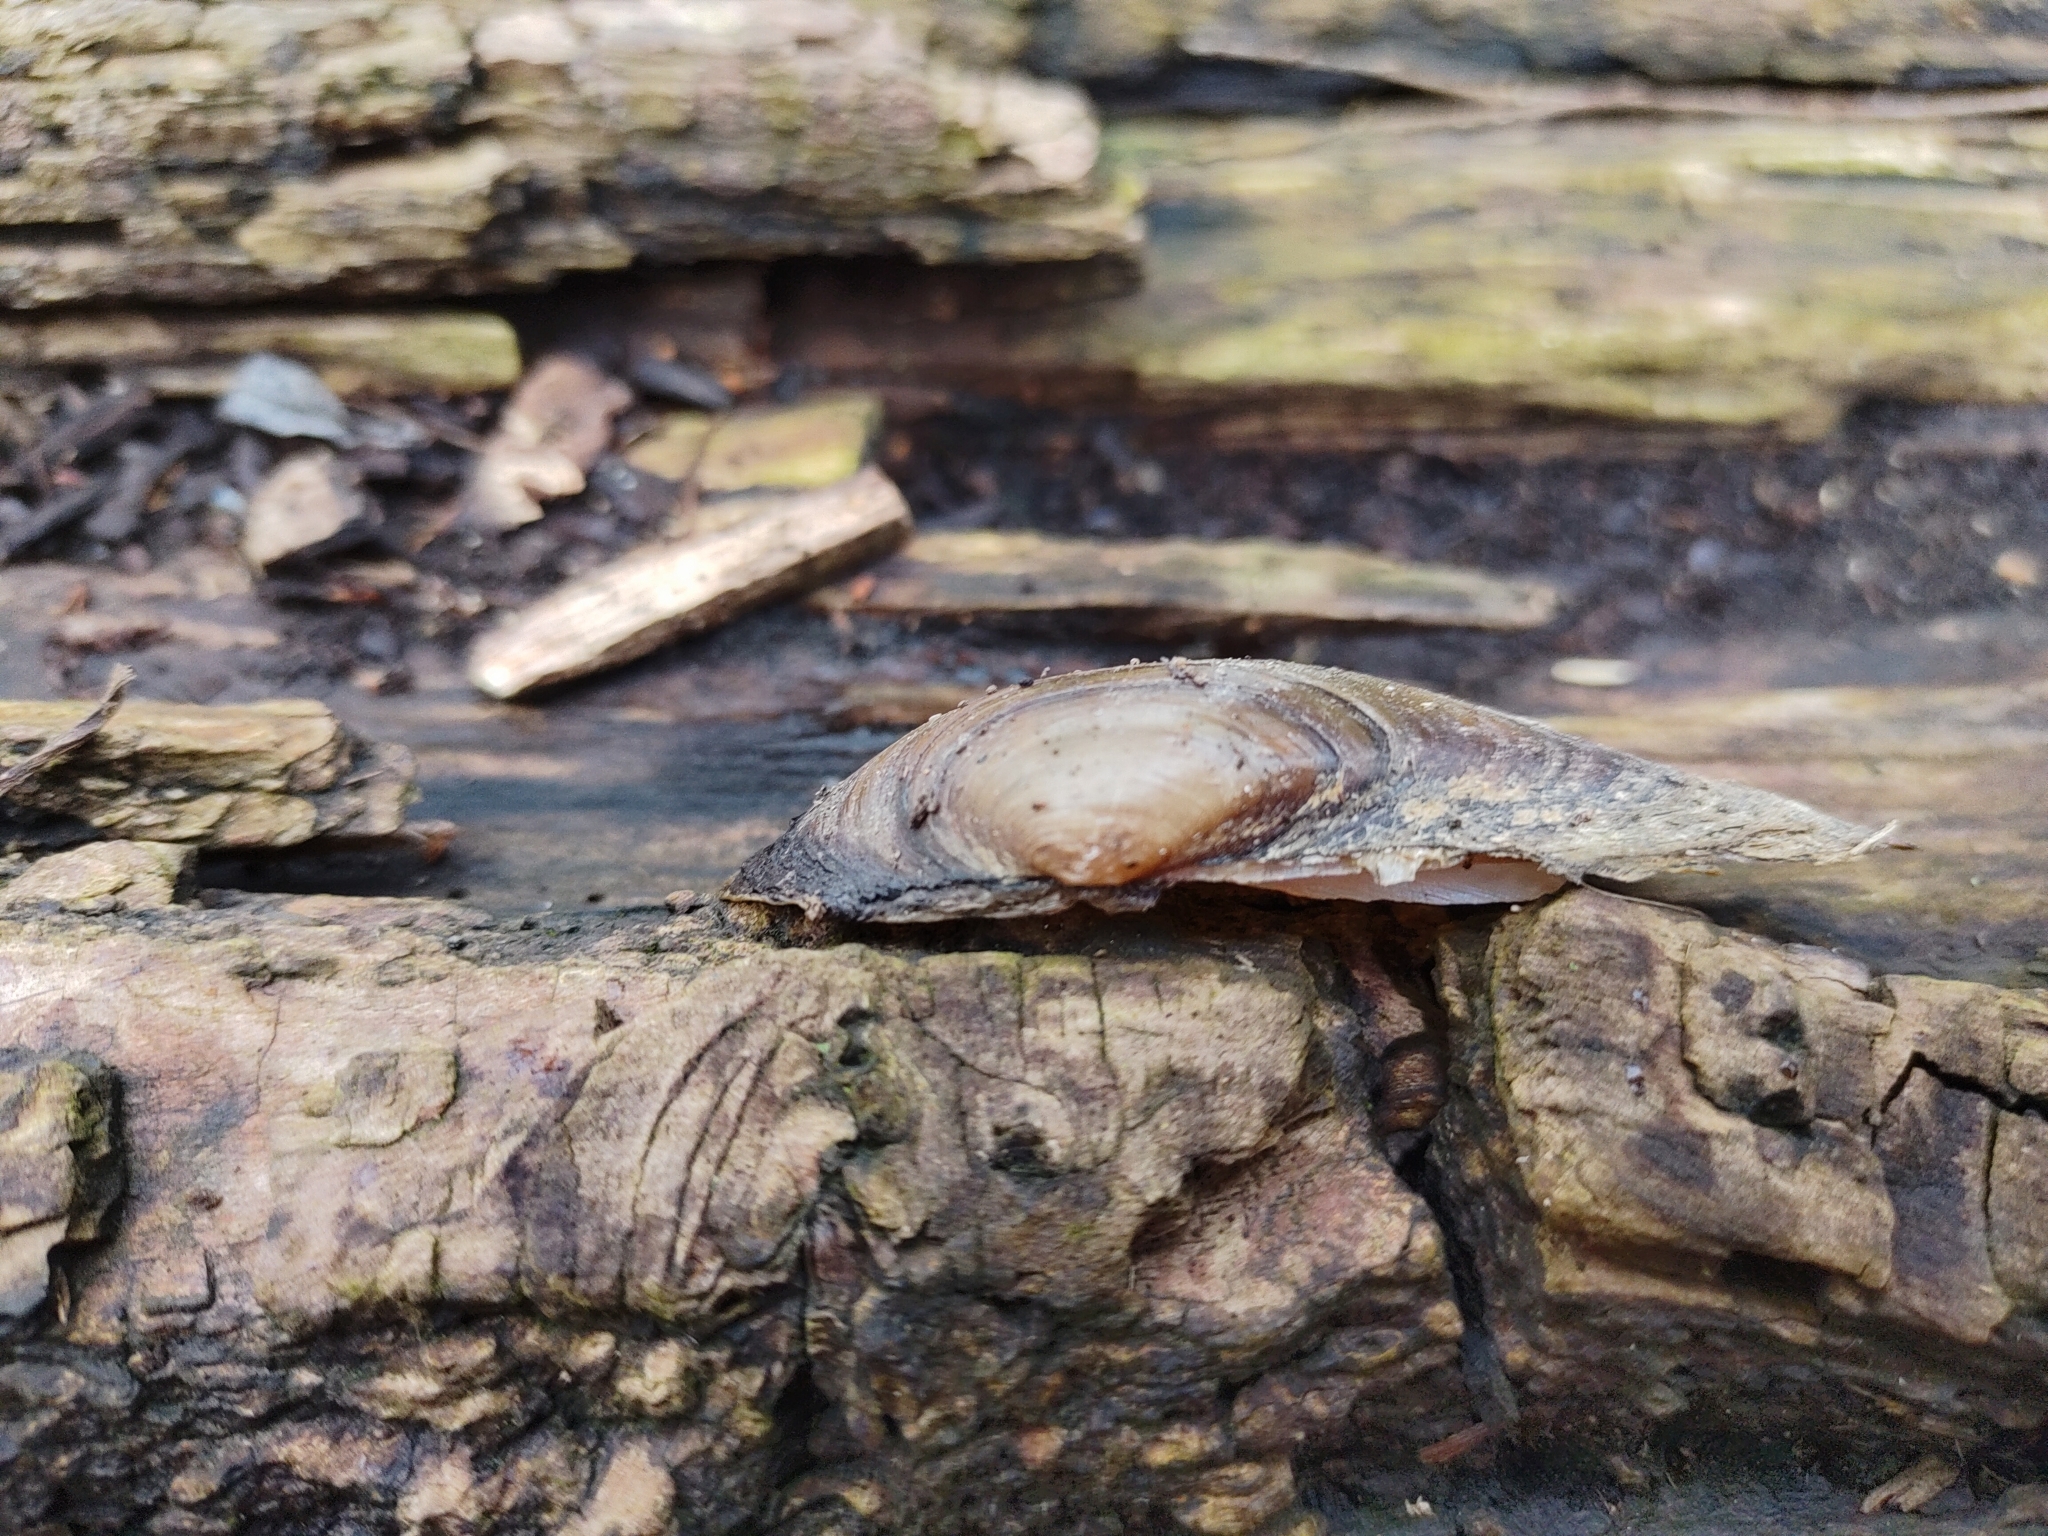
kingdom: Animalia
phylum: Mollusca
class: Bivalvia
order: Unionida
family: Unionidae
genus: Unio
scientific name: Unio tumidus
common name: Swollen river mussel
